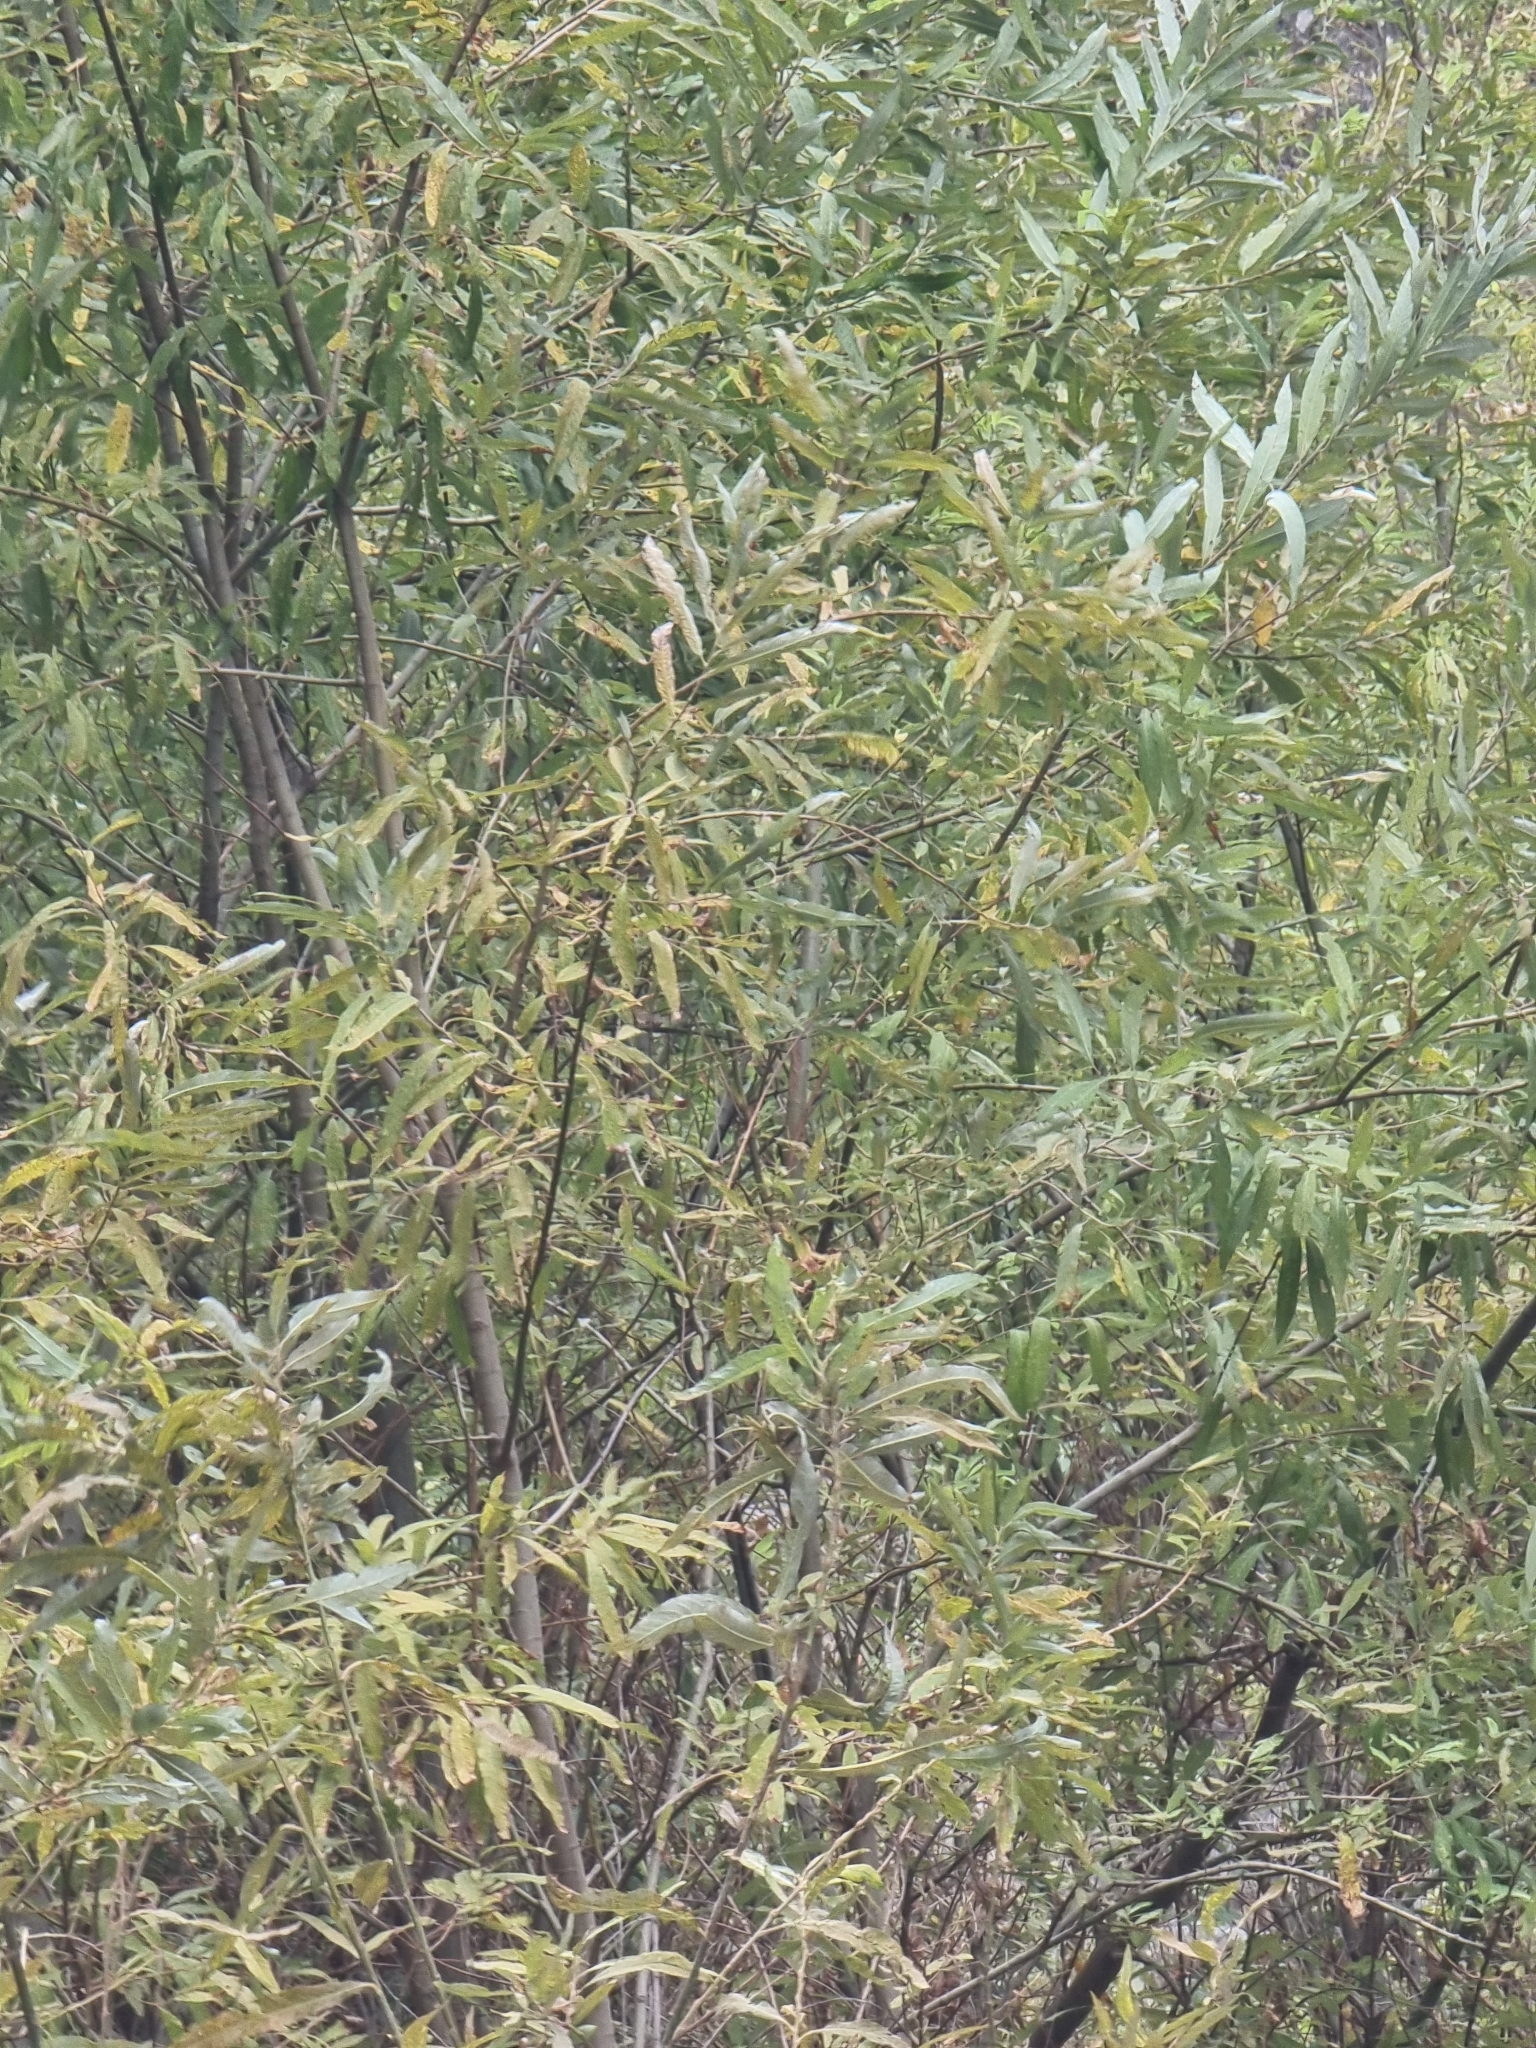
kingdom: Plantae
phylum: Tracheophyta
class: Magnoliopsida
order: Malpighiales
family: Salicaceae
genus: Salix
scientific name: Salix canariensis
